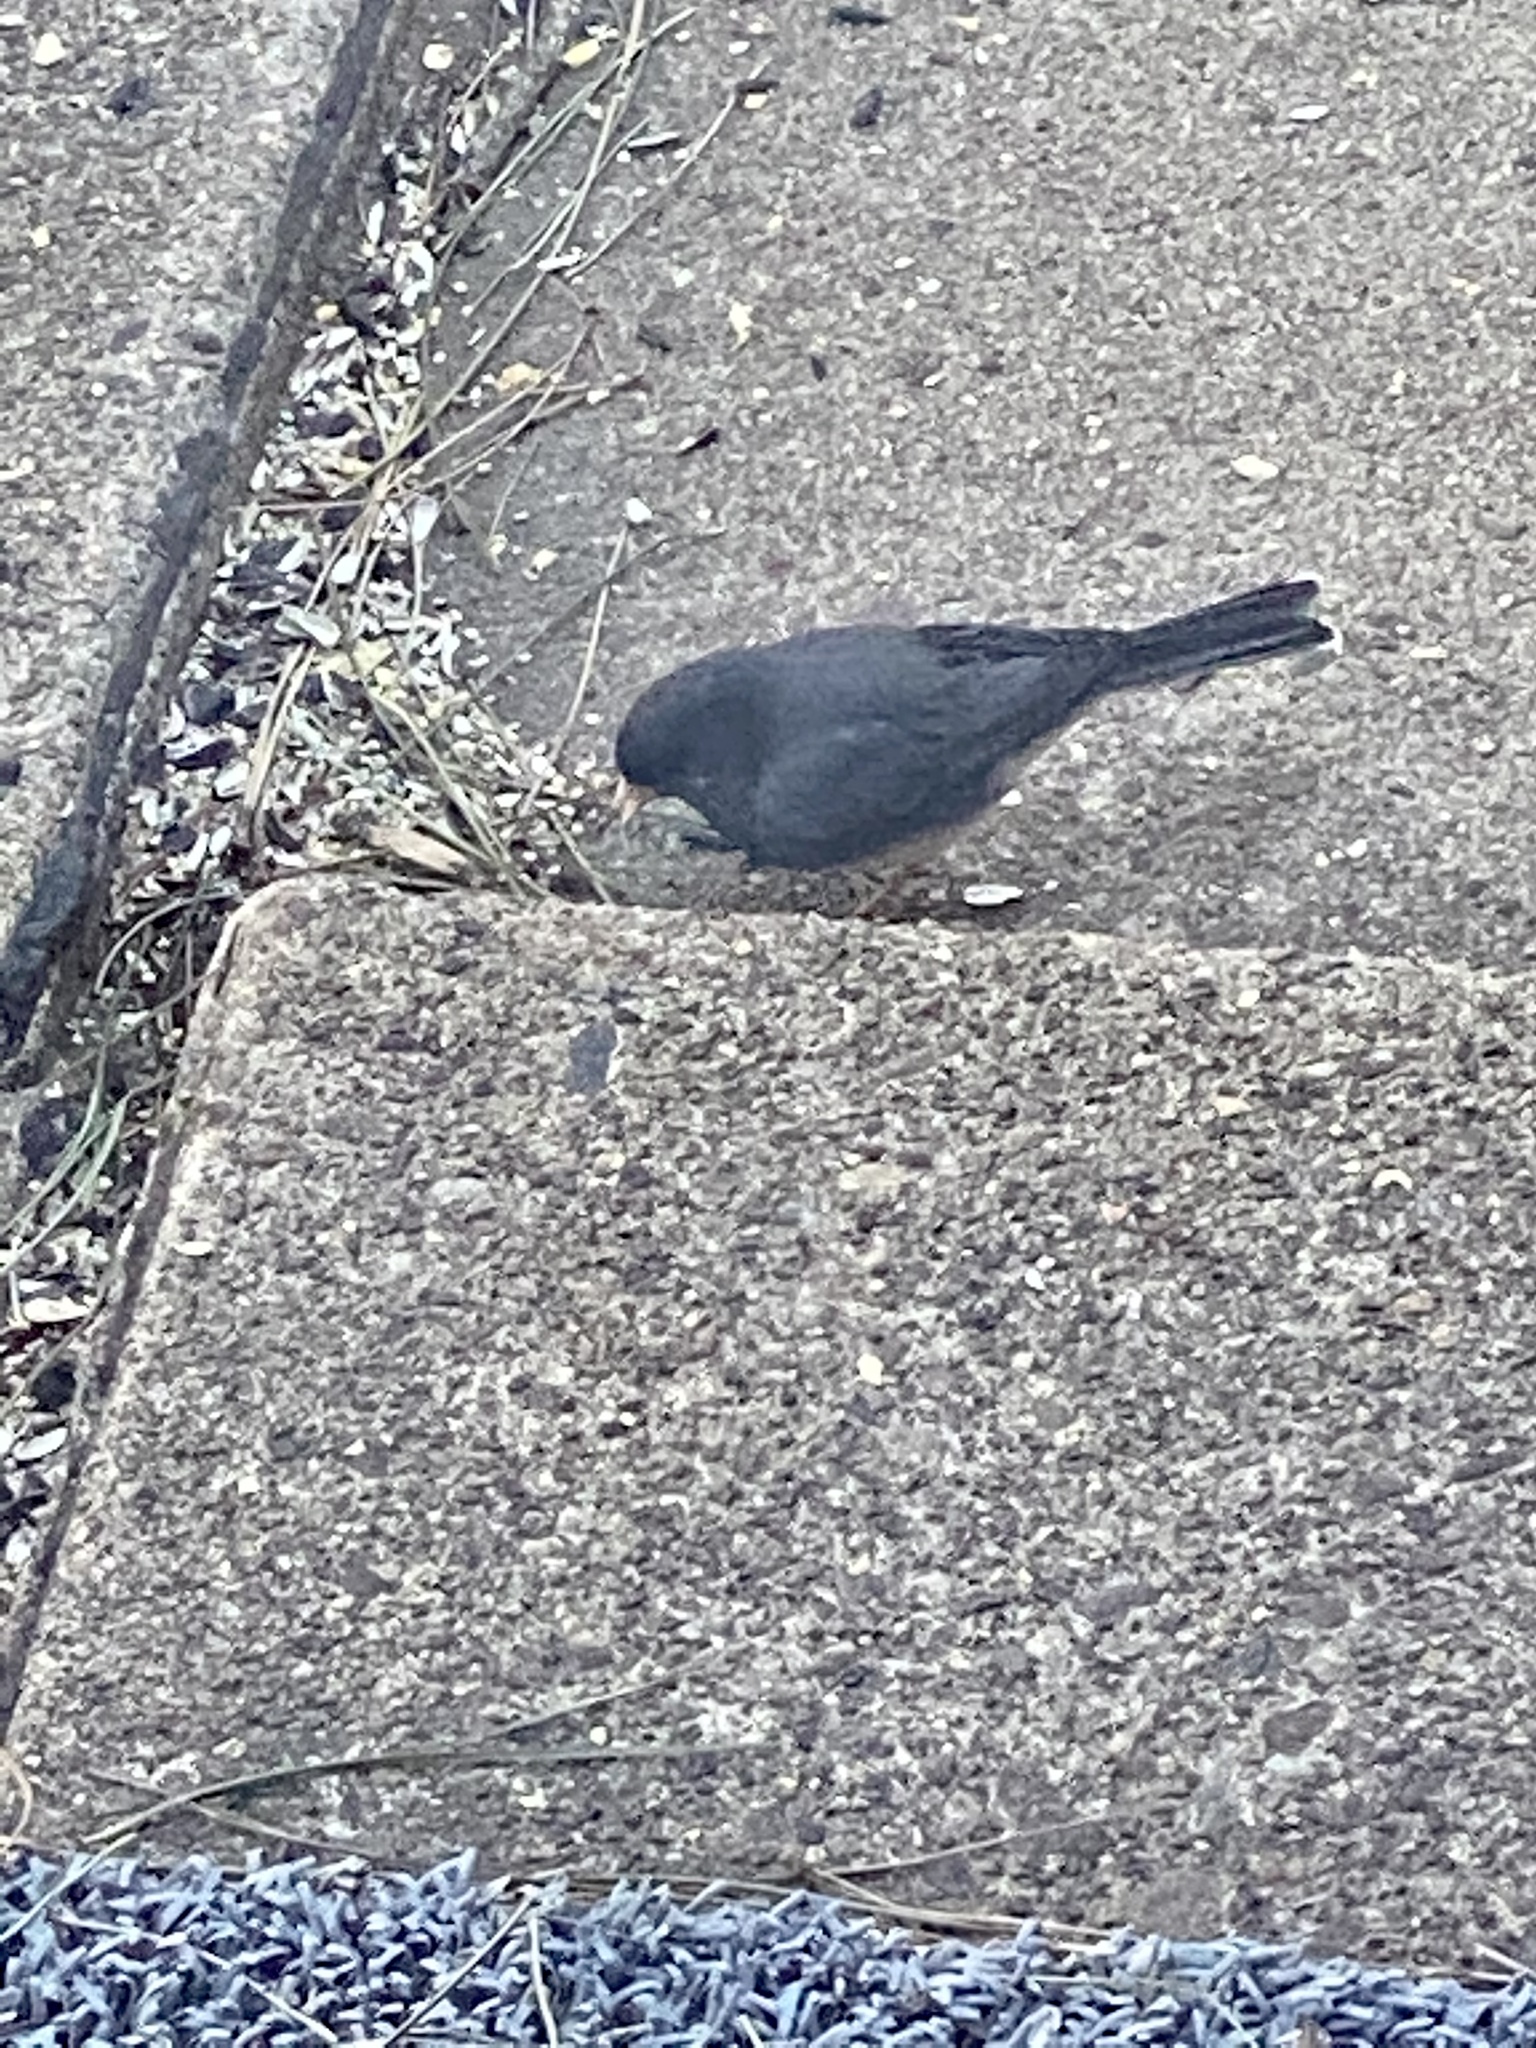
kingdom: Animalia
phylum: Chordata
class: Aves
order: Passeriformes
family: Passerellidae
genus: Junco
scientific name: Junco hyemalis
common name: Dark-eyed junco
